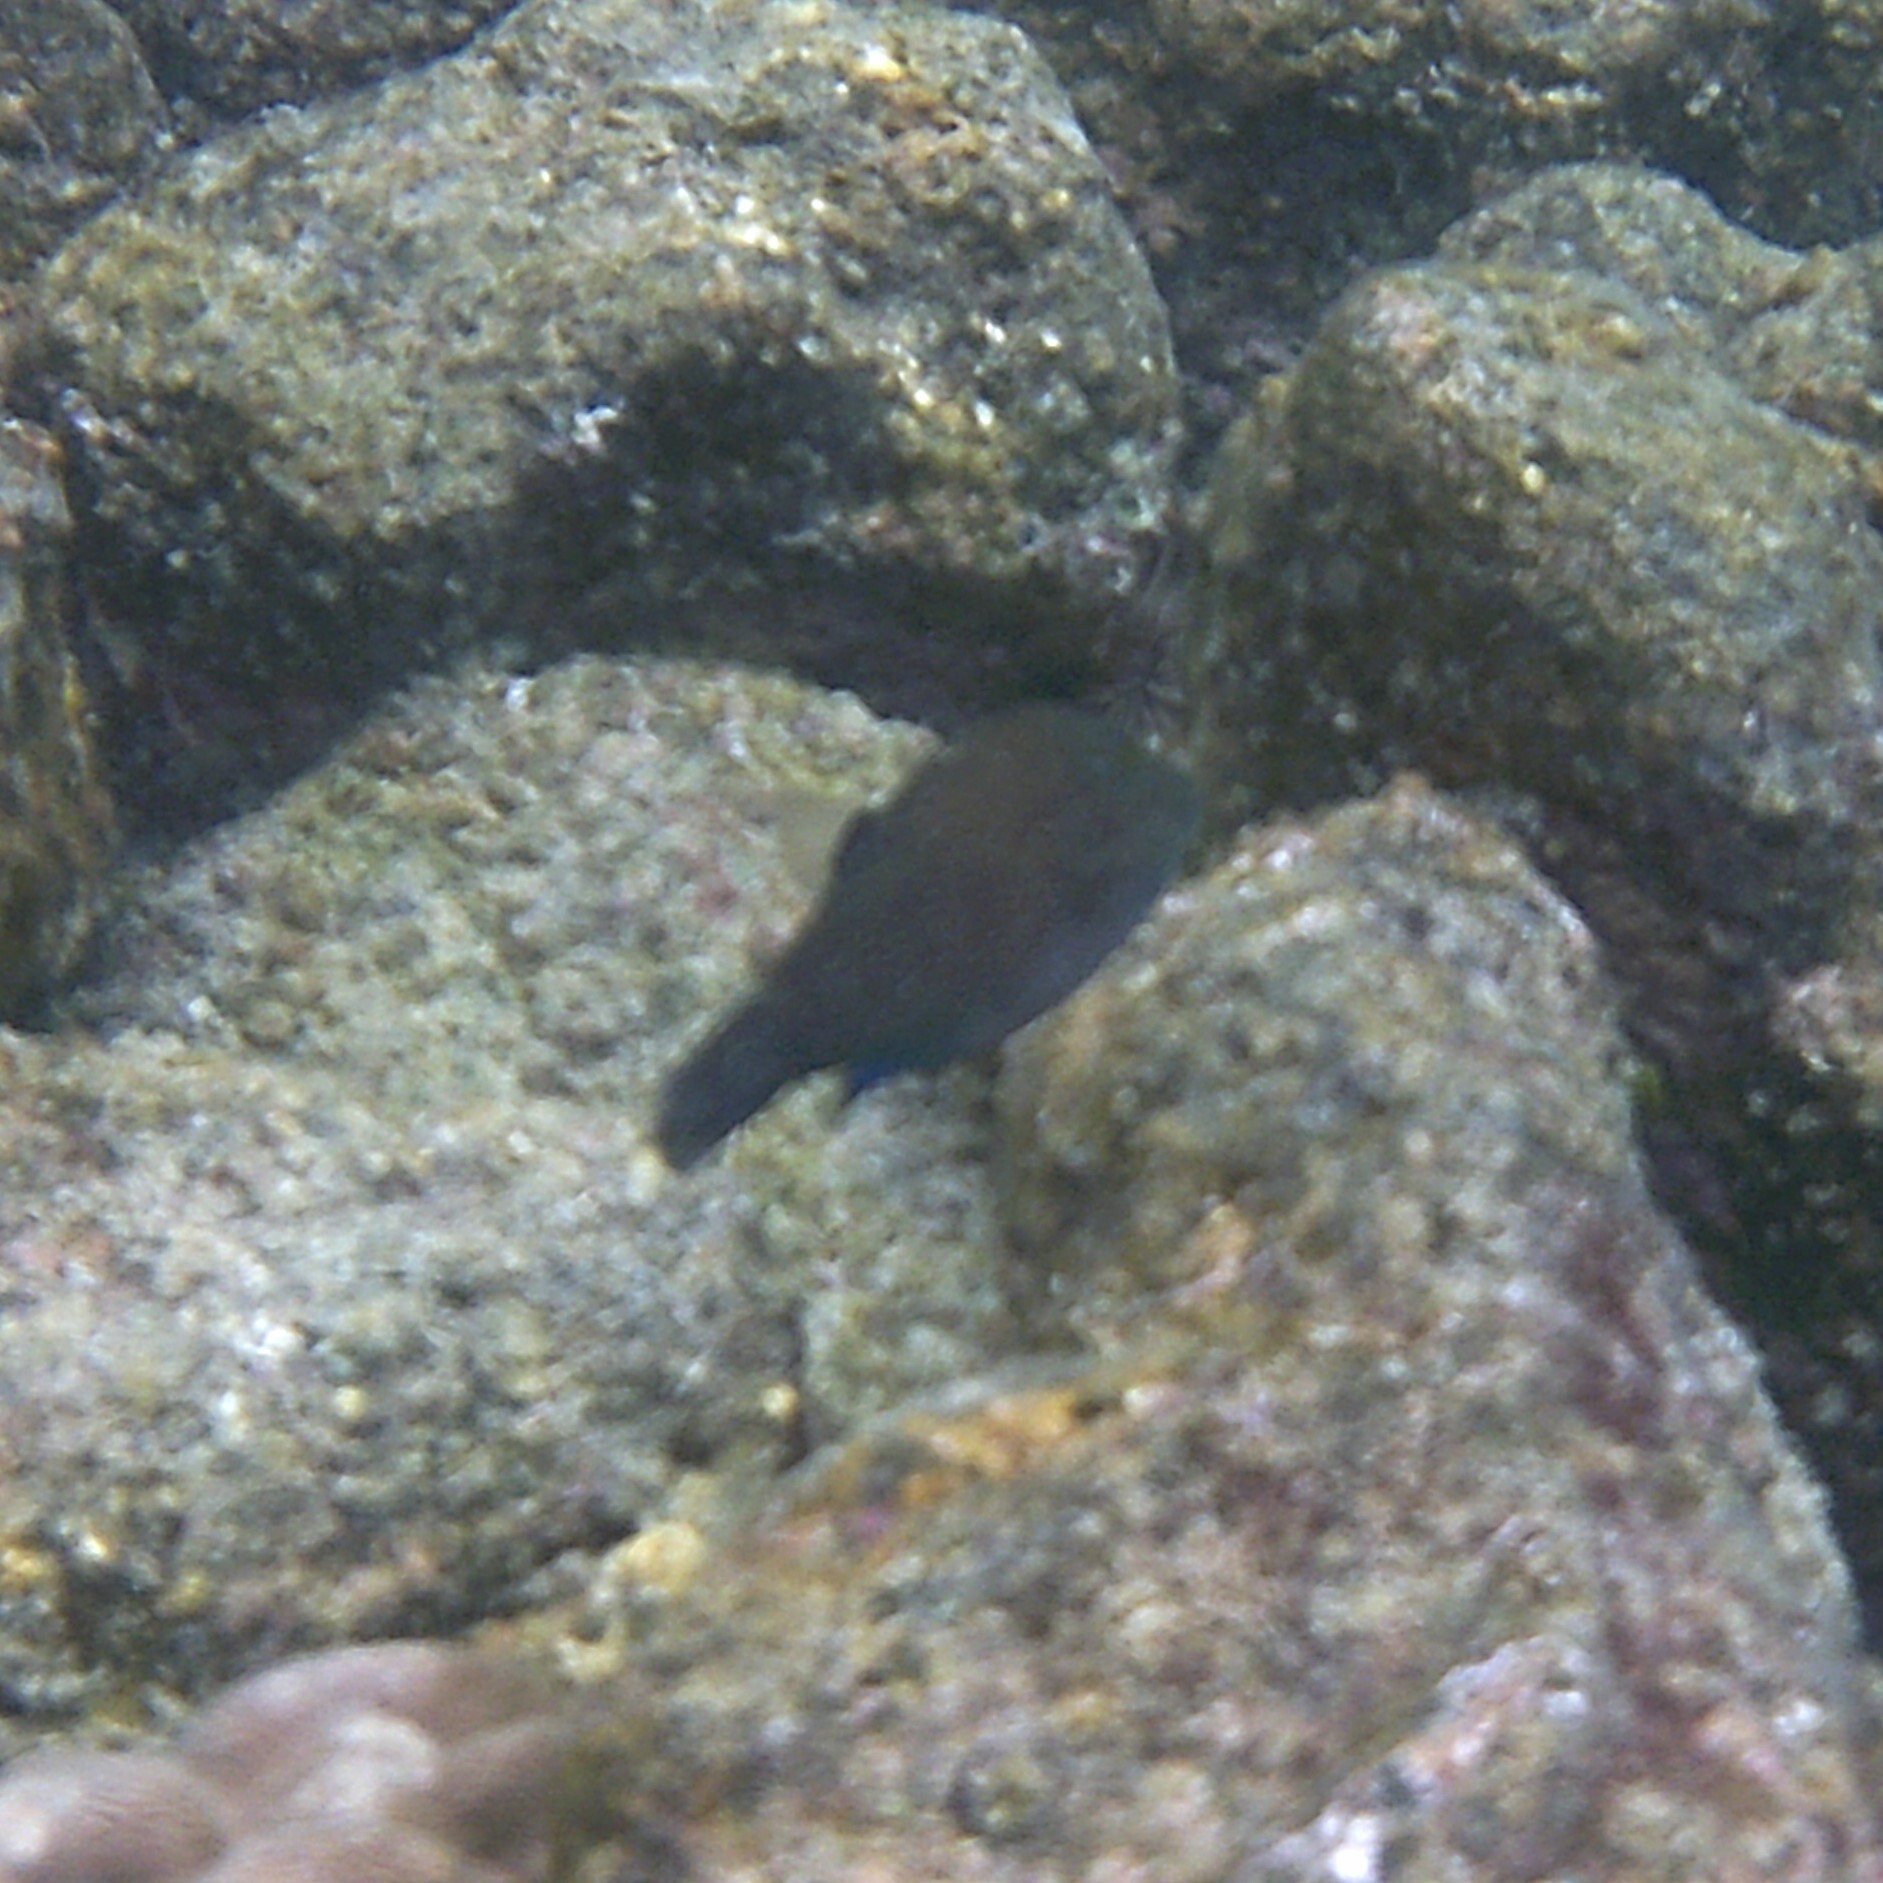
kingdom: Animalia
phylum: Chordata
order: Tetraodontiformes
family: Tetraodontidae
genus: Canthigaster
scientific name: Canthigaster amboinensis
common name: Ambon pufferfish
